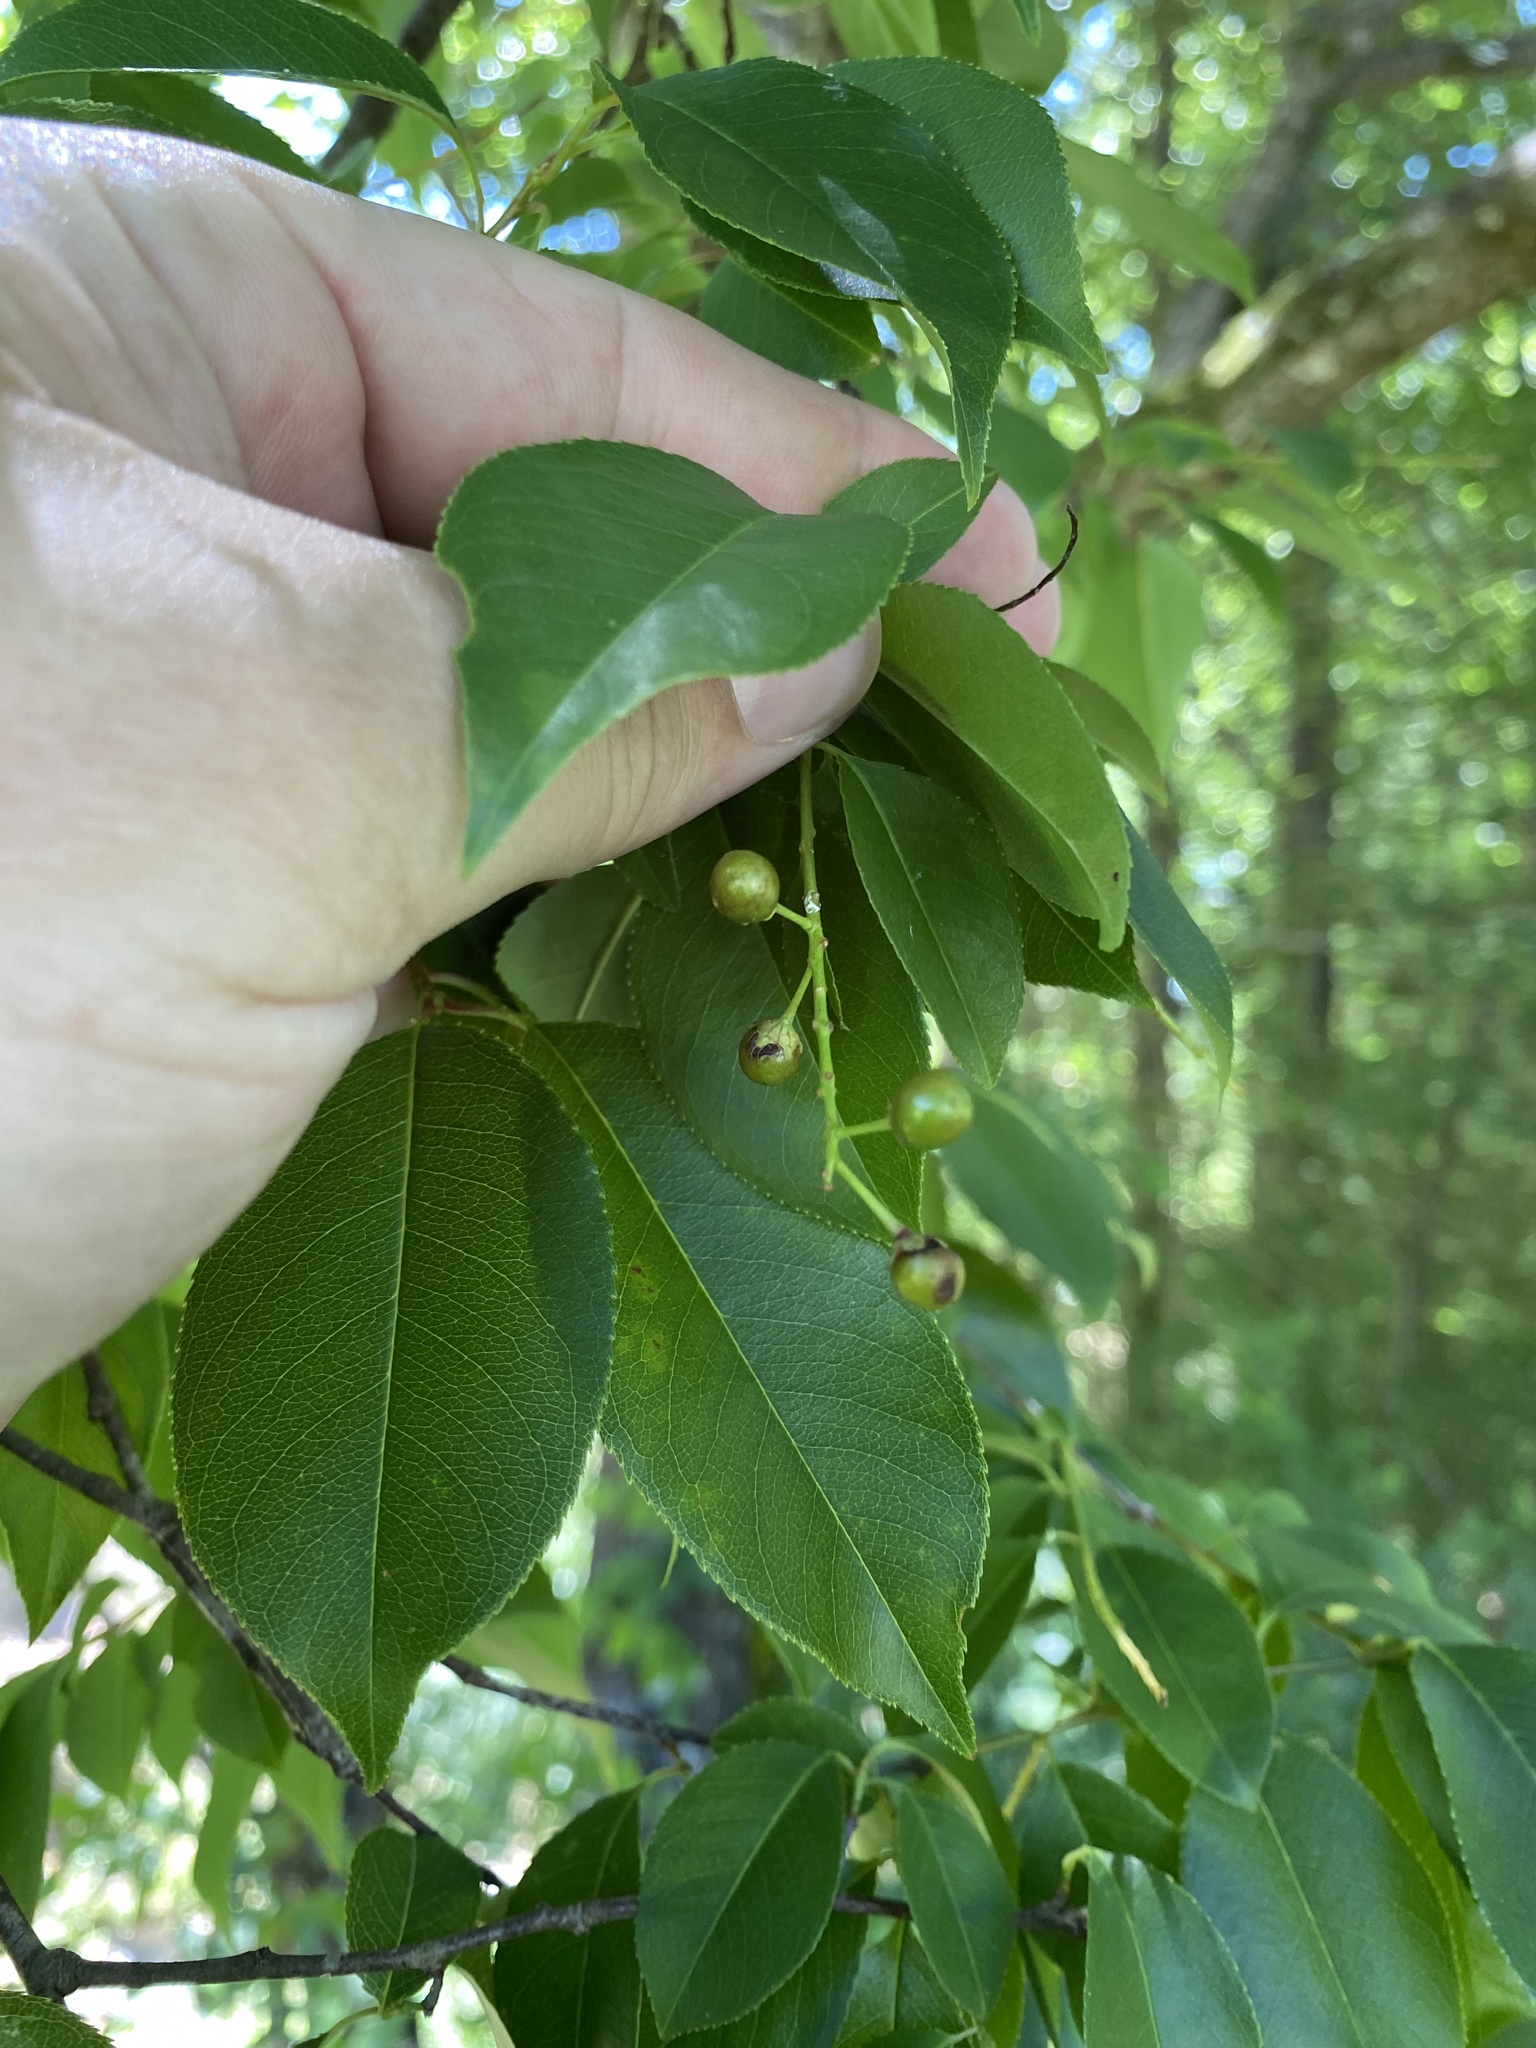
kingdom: Plantae
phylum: Tracheophyta
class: Magnoliopsida
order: Rosales
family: Rosaceae
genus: Prunus
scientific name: Prunus serotina
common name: Black cherry
